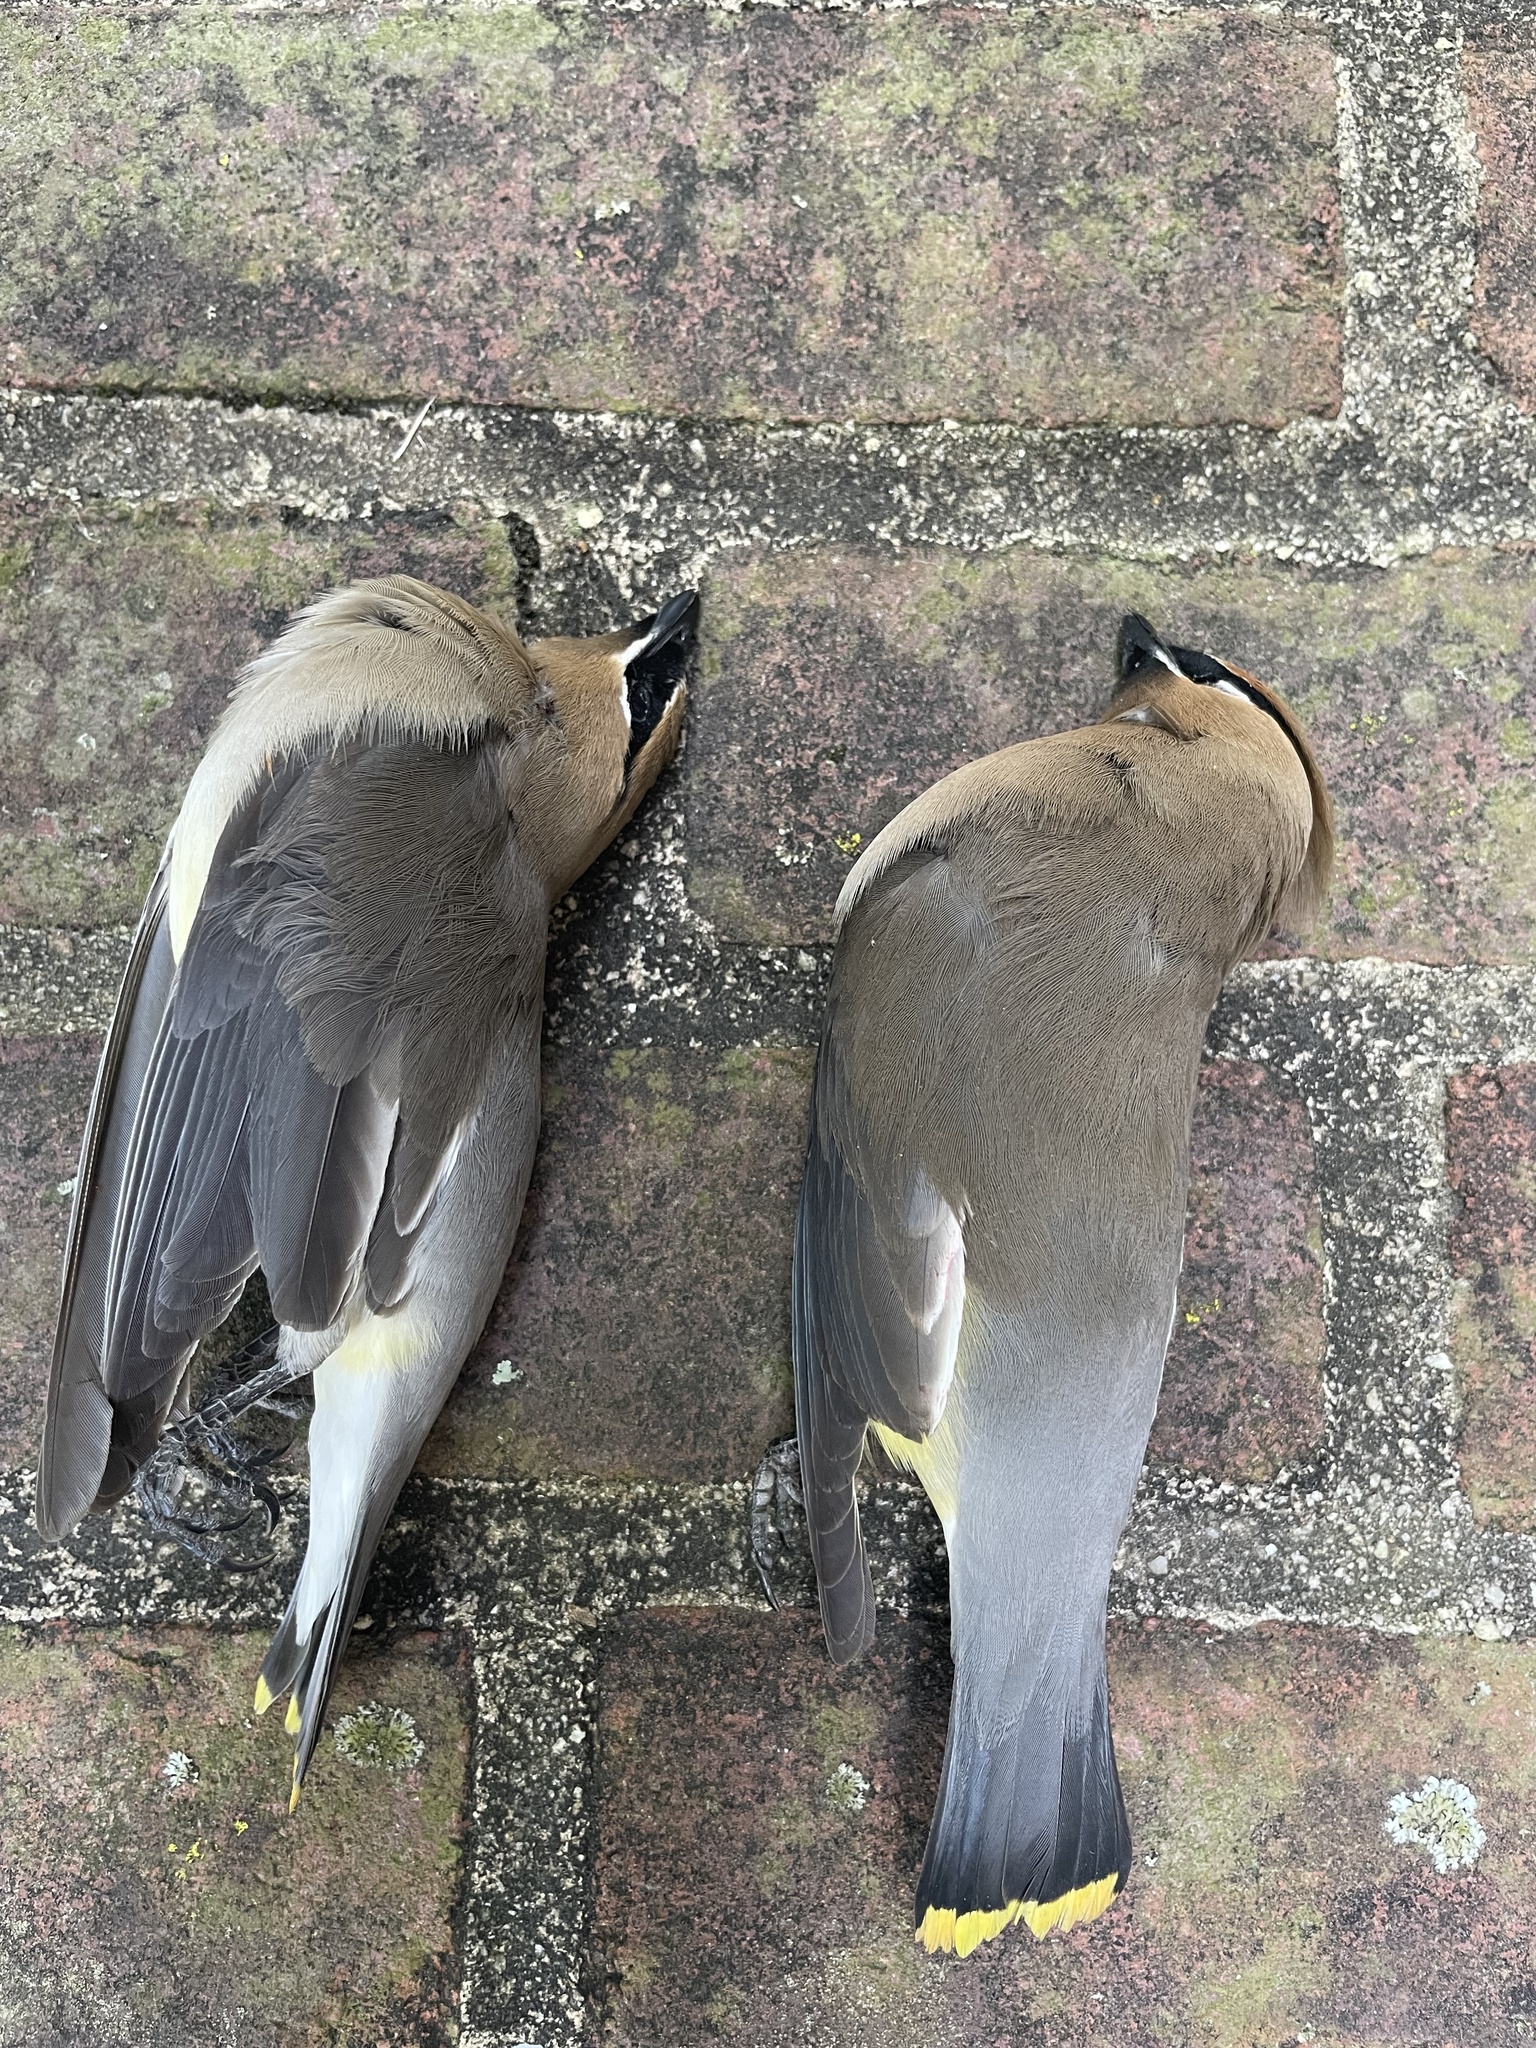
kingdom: Animalia
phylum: Chordata
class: Aves
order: Passeriformes
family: Bombycillidae
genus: Bombycilla
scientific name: Bombycilla cedrorum
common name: Cedar waxwing
